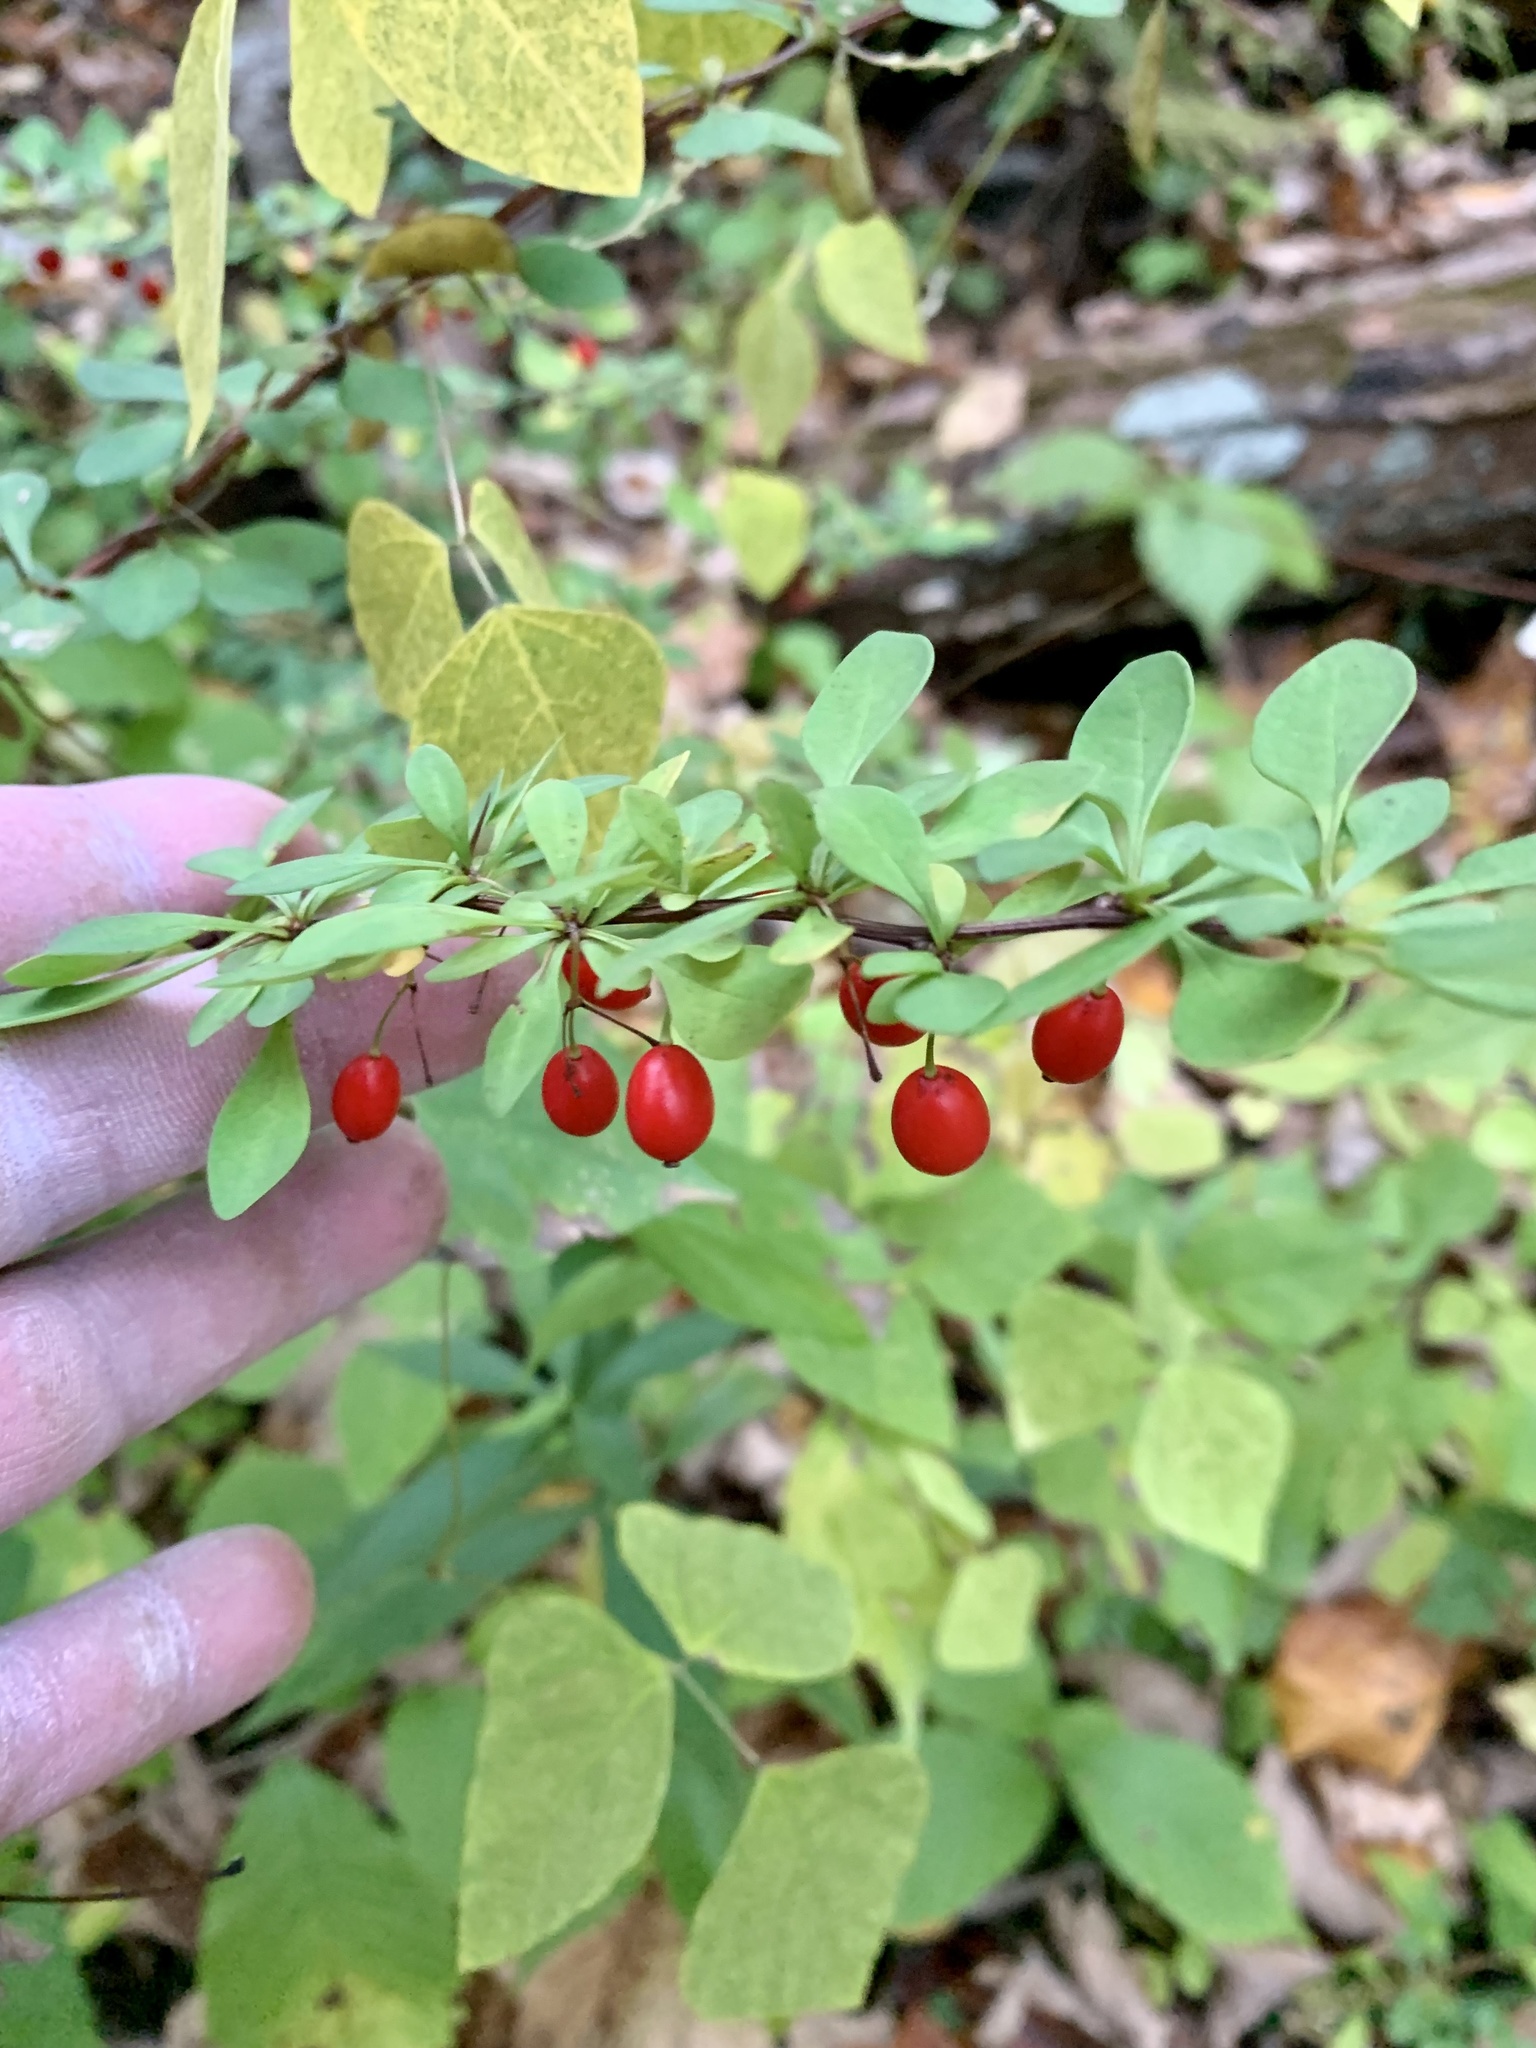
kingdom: Plantae
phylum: Tracheophyta
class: Magnoliopsida
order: Ranunculales
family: Berberidaceae
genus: Berberis
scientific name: Berberis thunbergii
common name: Japanese barberry
